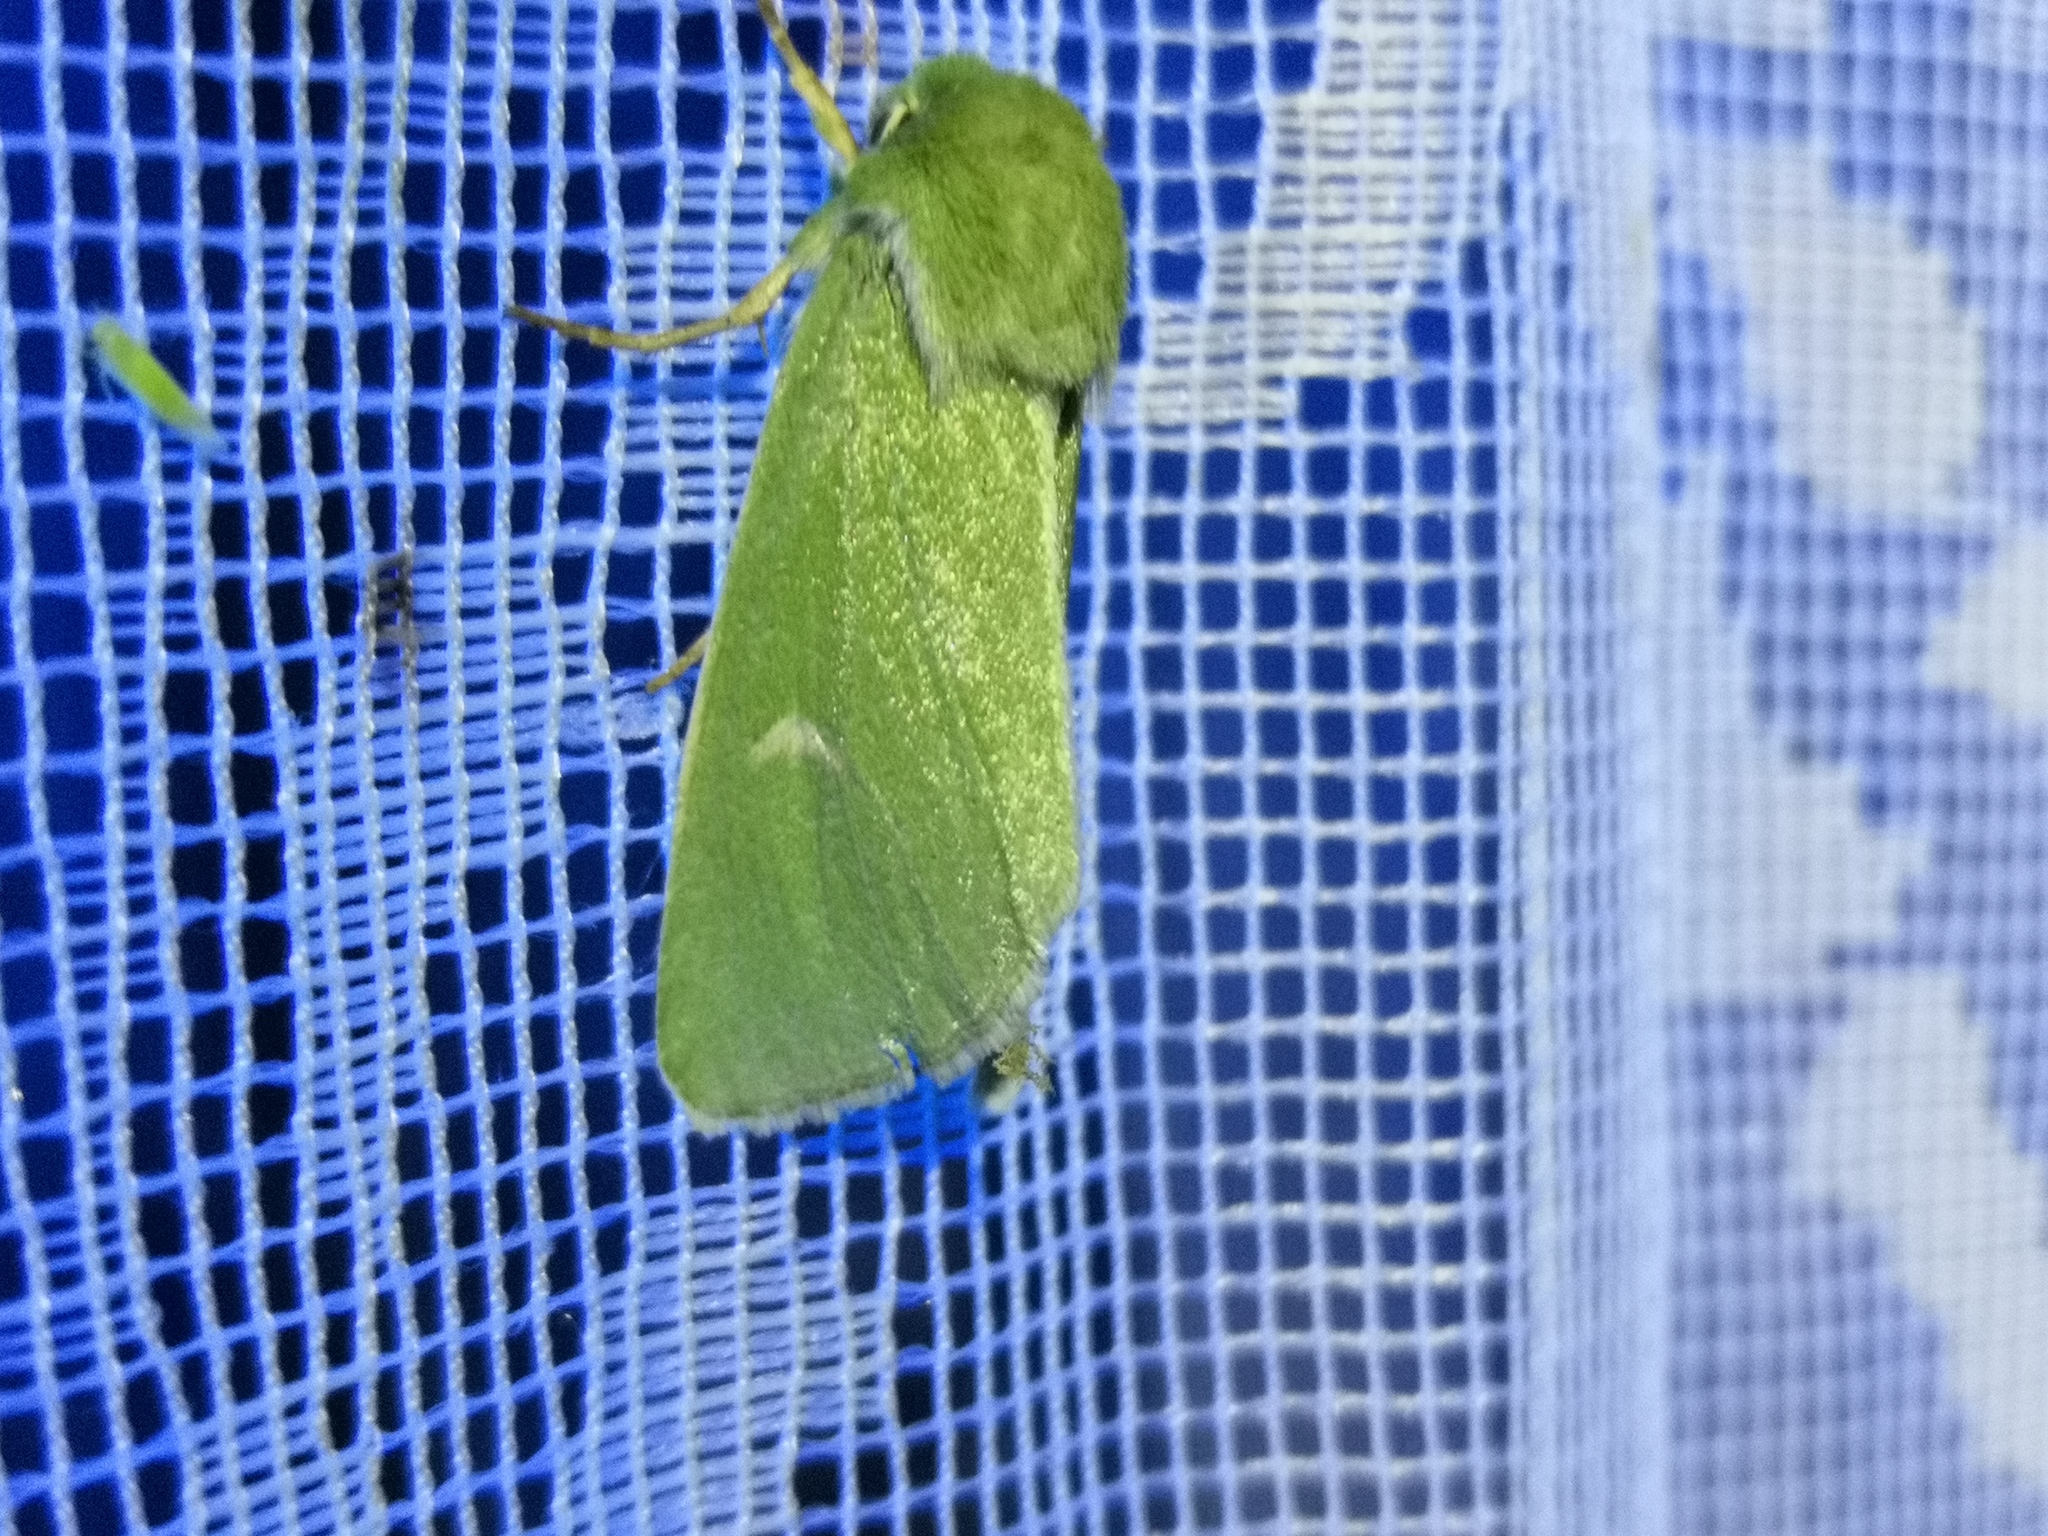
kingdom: Animalia
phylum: Arthropoda
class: Insecta
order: Lepidoptera
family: Noctuidae
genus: Calamia
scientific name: Calamia tridens
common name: Burren green
